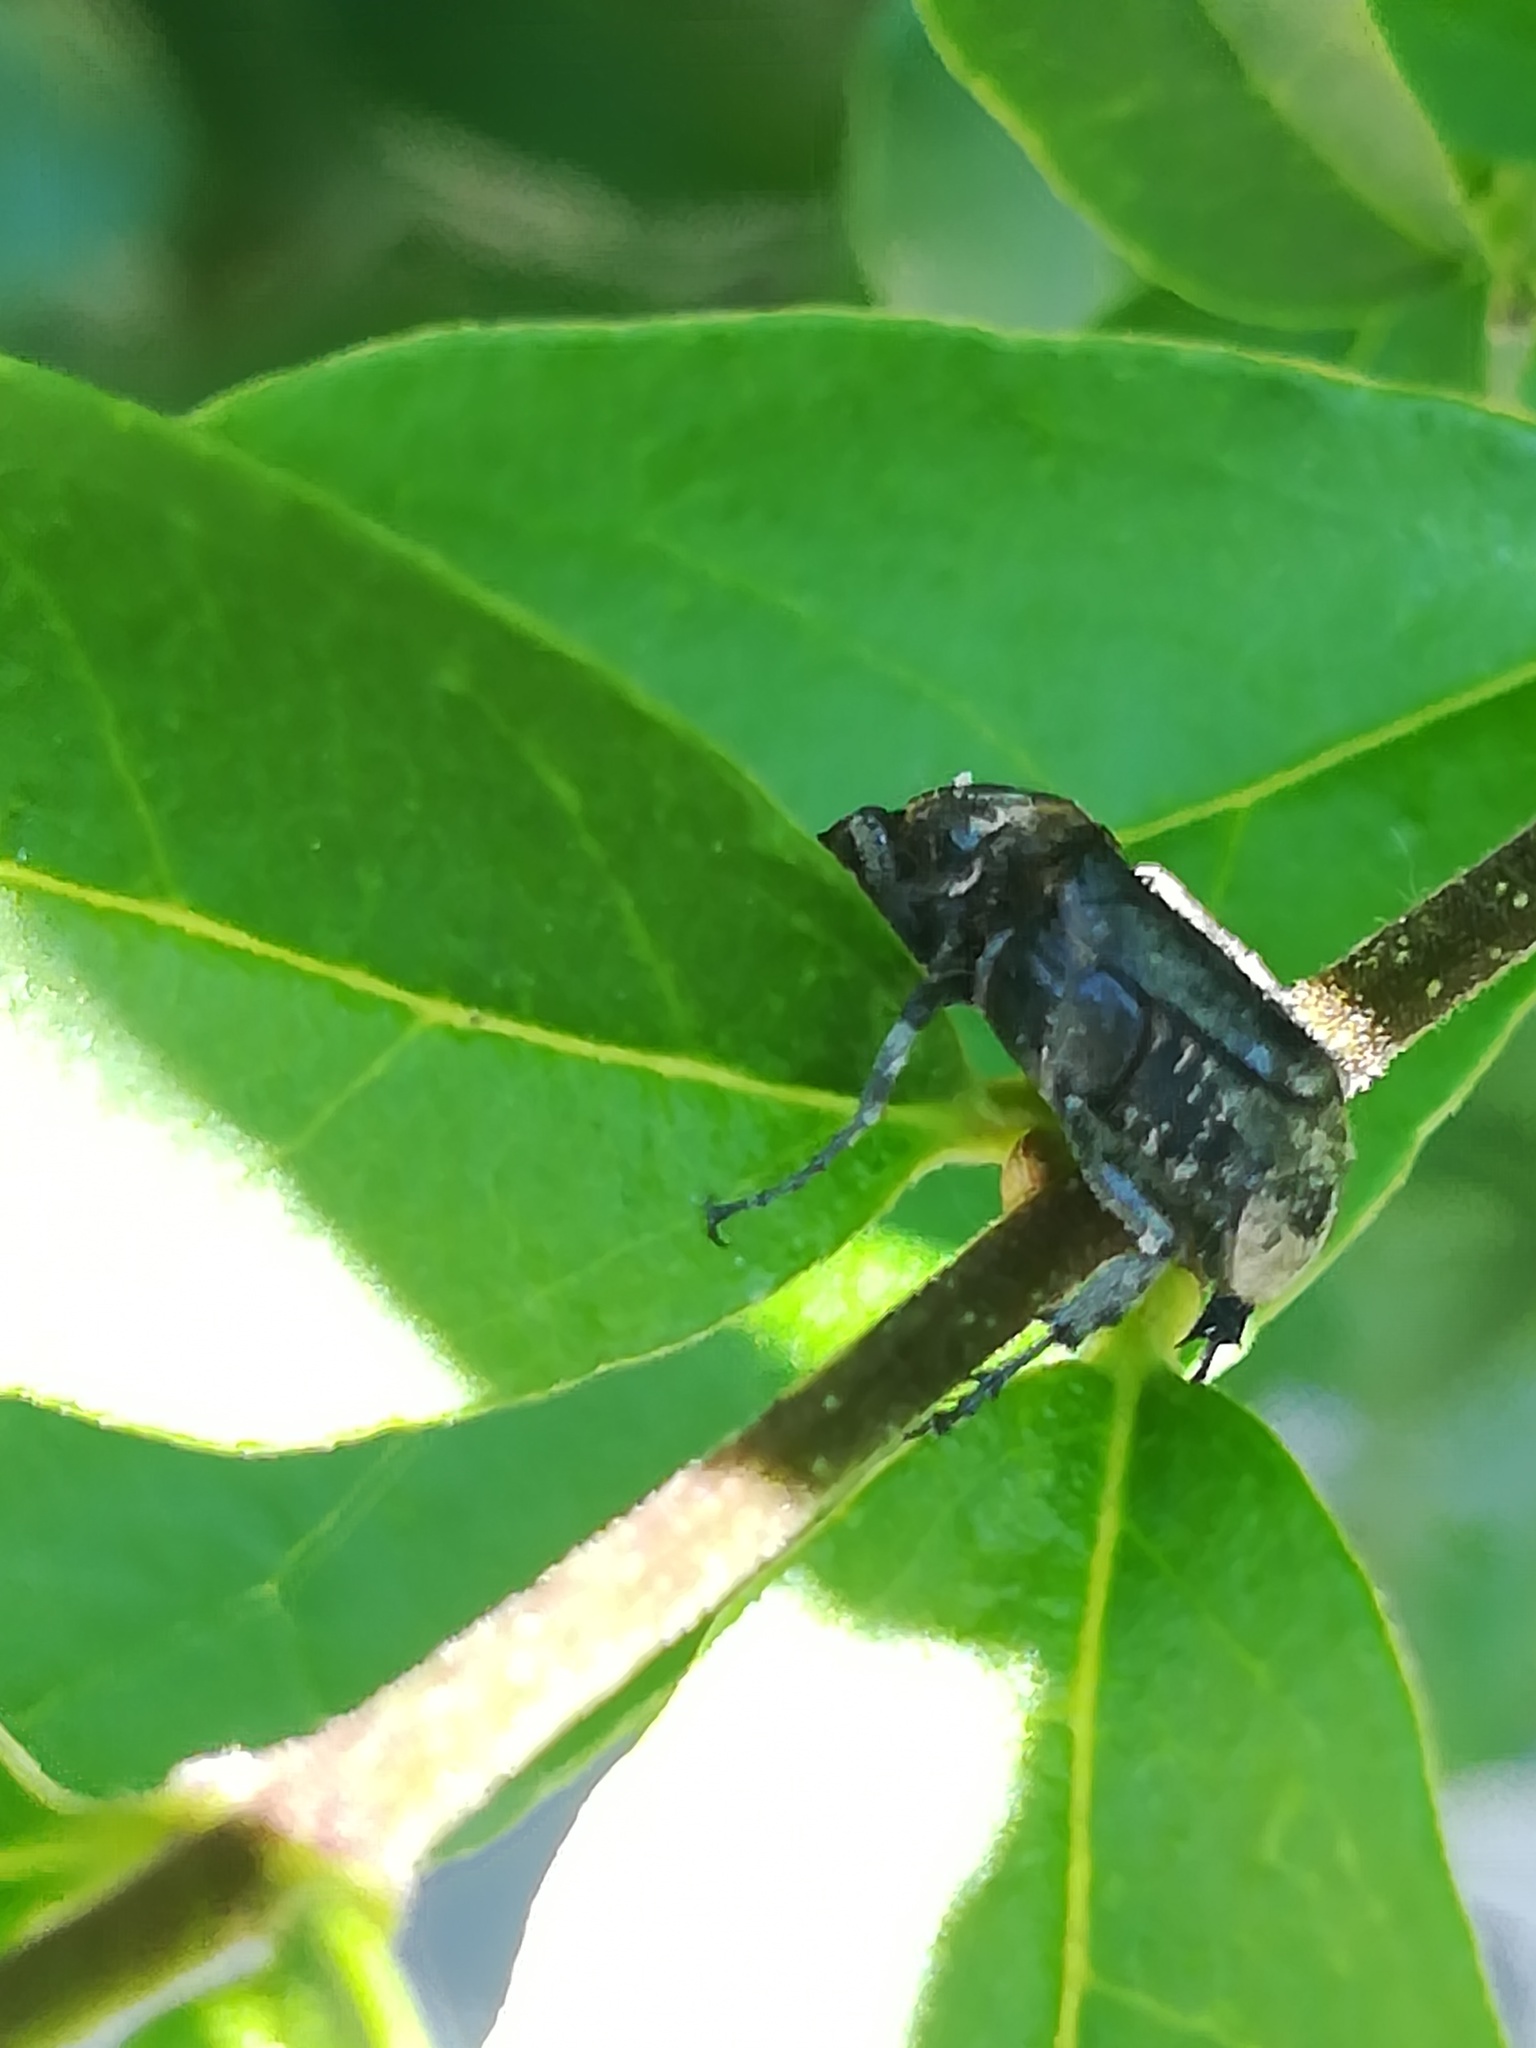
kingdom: Animalia
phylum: Arthropoda
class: Insecta
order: Coleoptera
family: Scarabaeidae
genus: Valgus
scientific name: Valgus hemipterus
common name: Bug flower chafer
